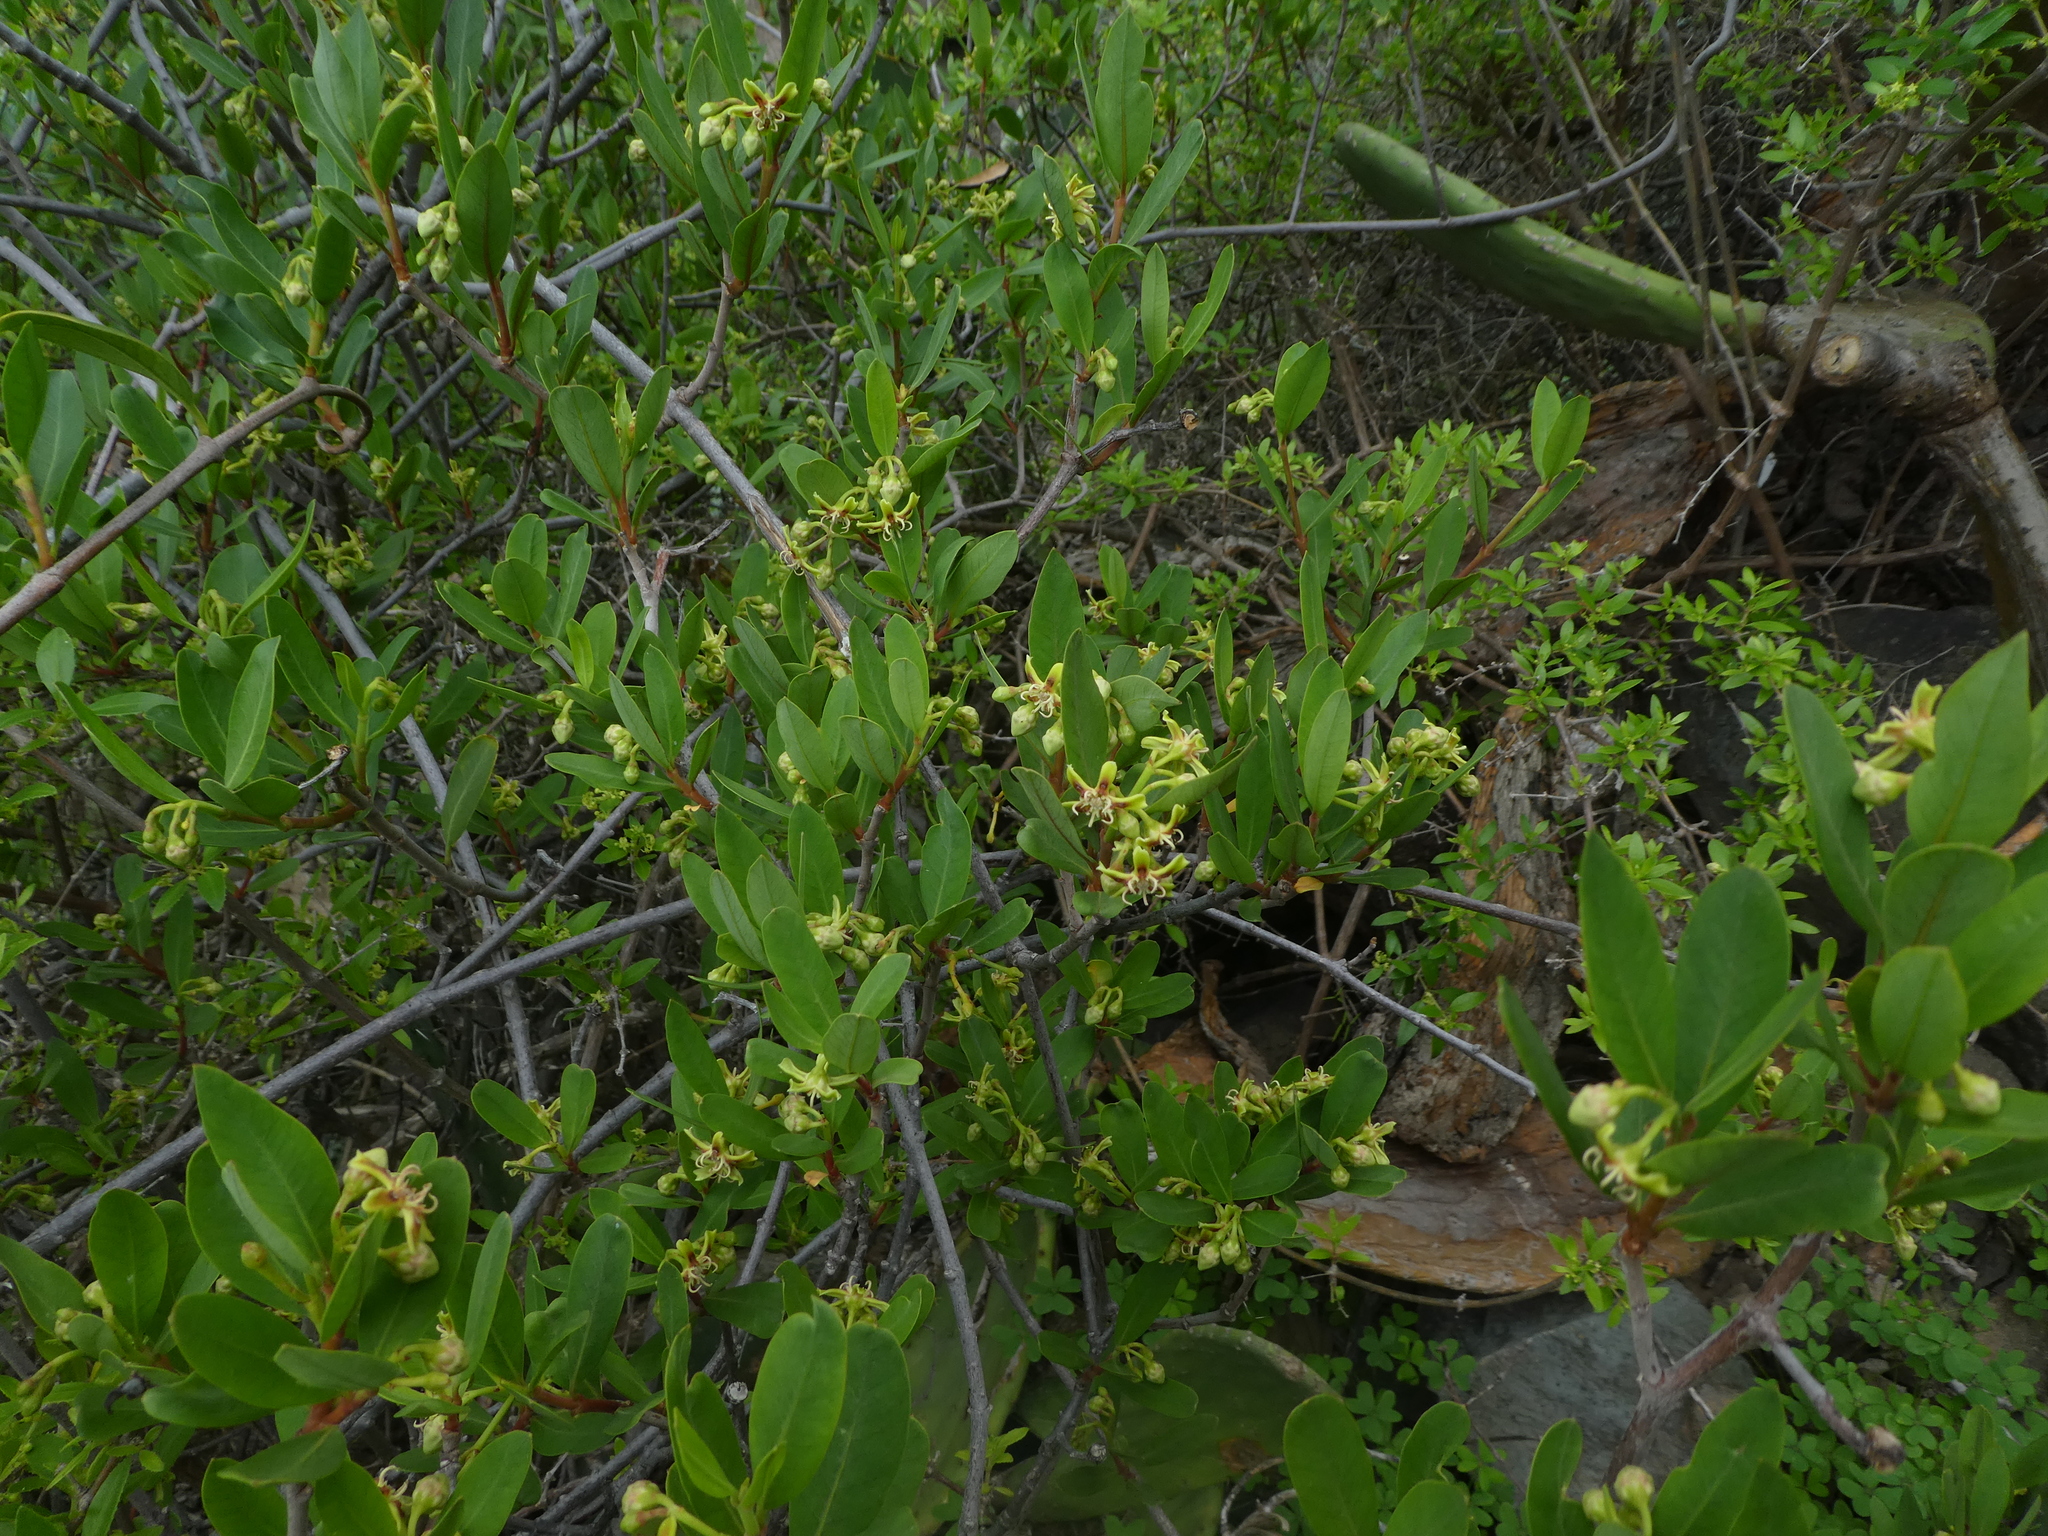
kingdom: Plantae
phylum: Tracheophyta
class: Magnoliopsida
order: Gentianales
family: Apocynaceae
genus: Periploca
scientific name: Periploca laevigata
